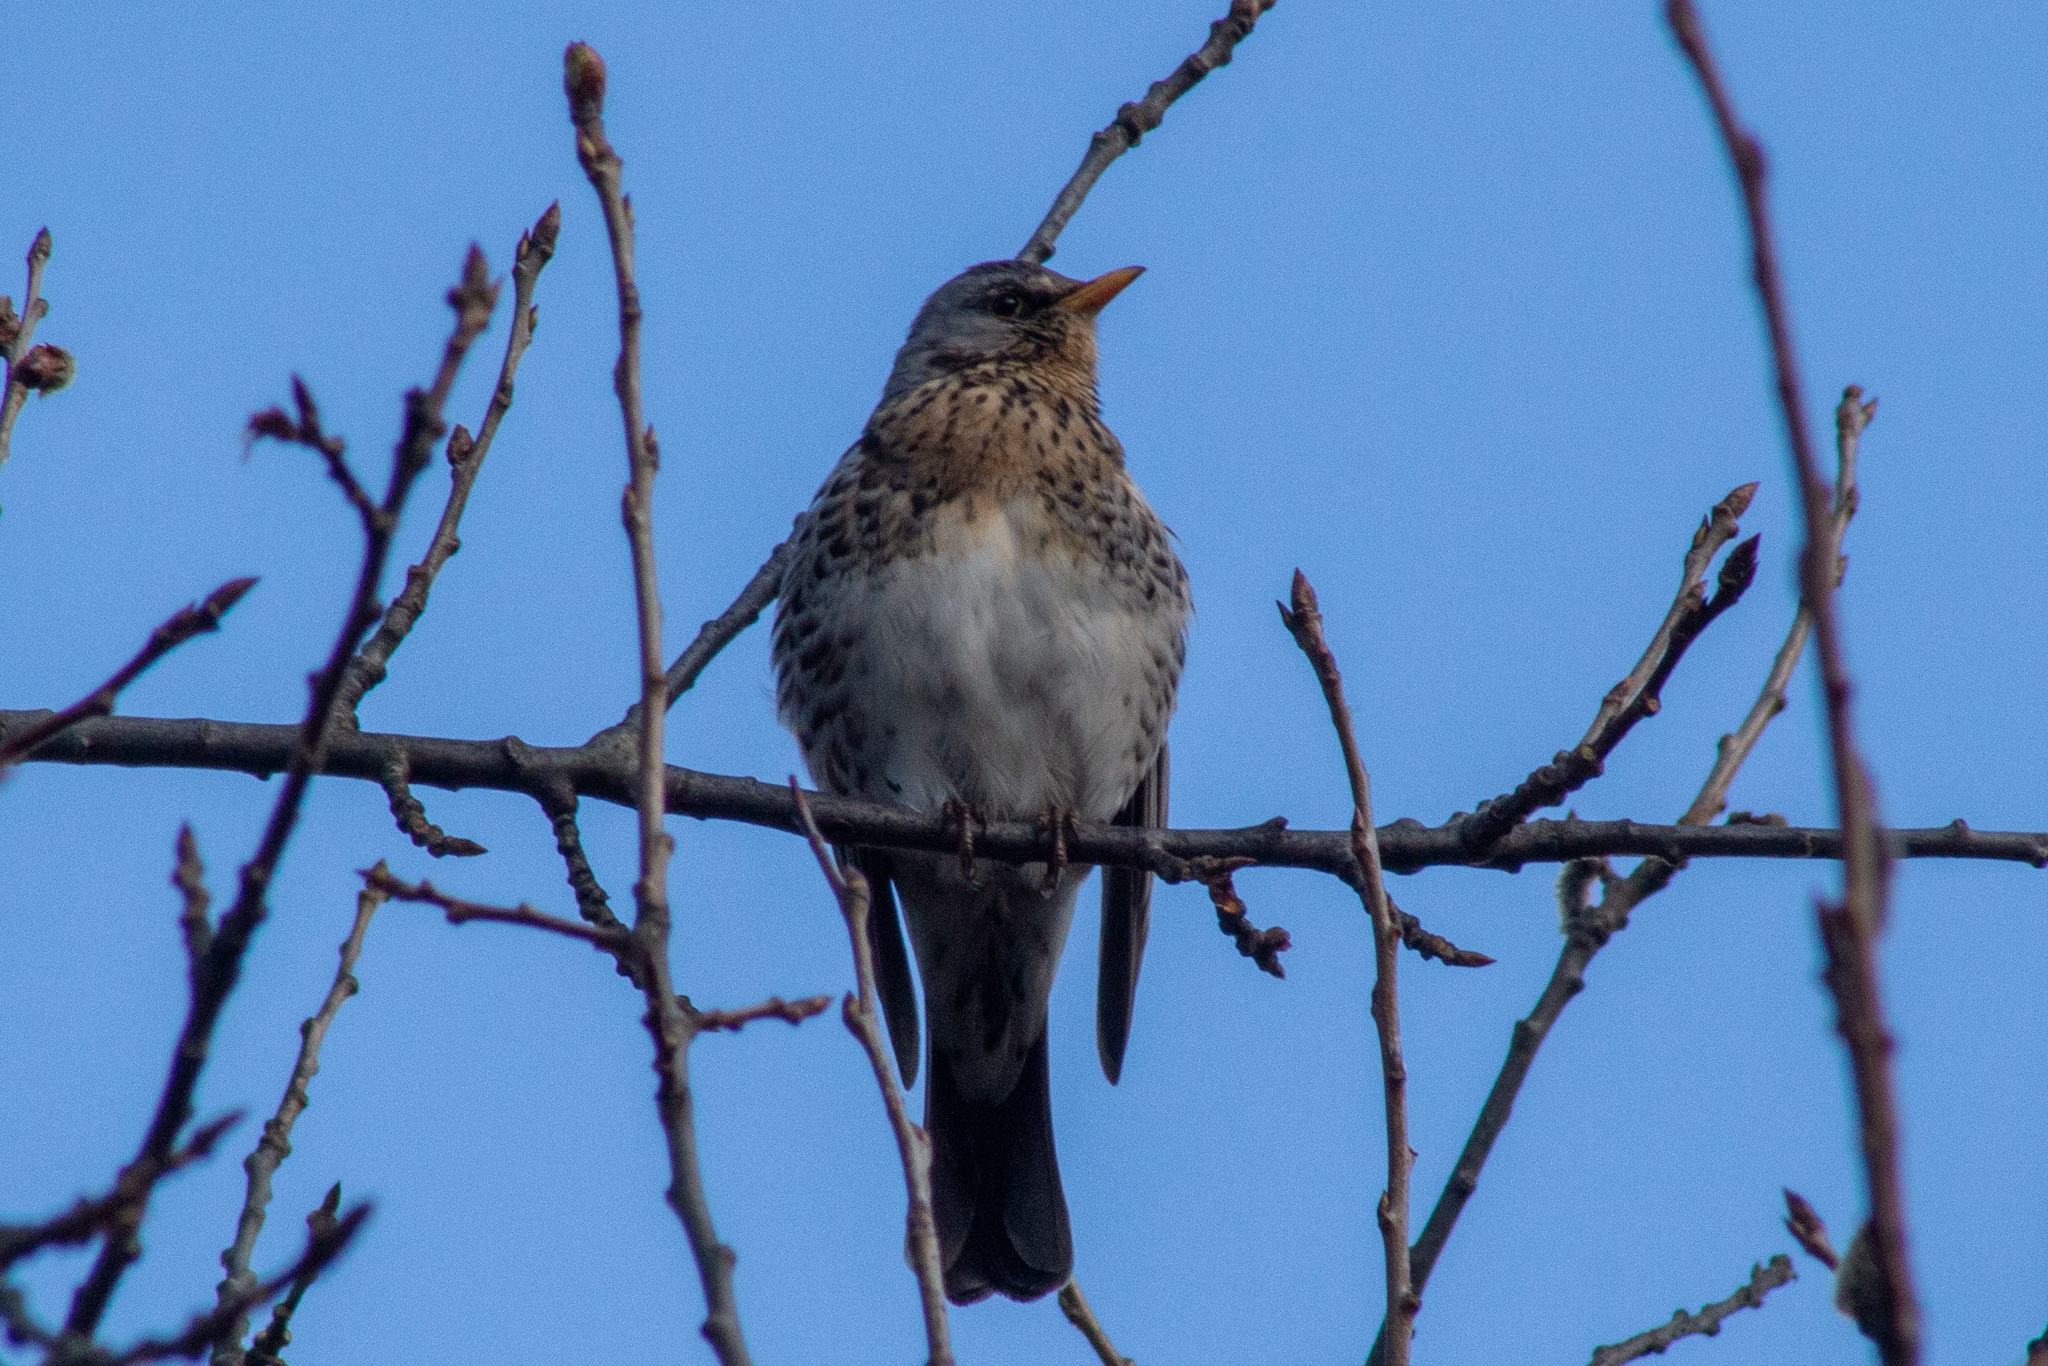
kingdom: Animalia
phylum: Chordata
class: Aves
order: Passeriformes
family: Turdidae
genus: Turdus
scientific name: Turdus pilaris
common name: Fieldfare
